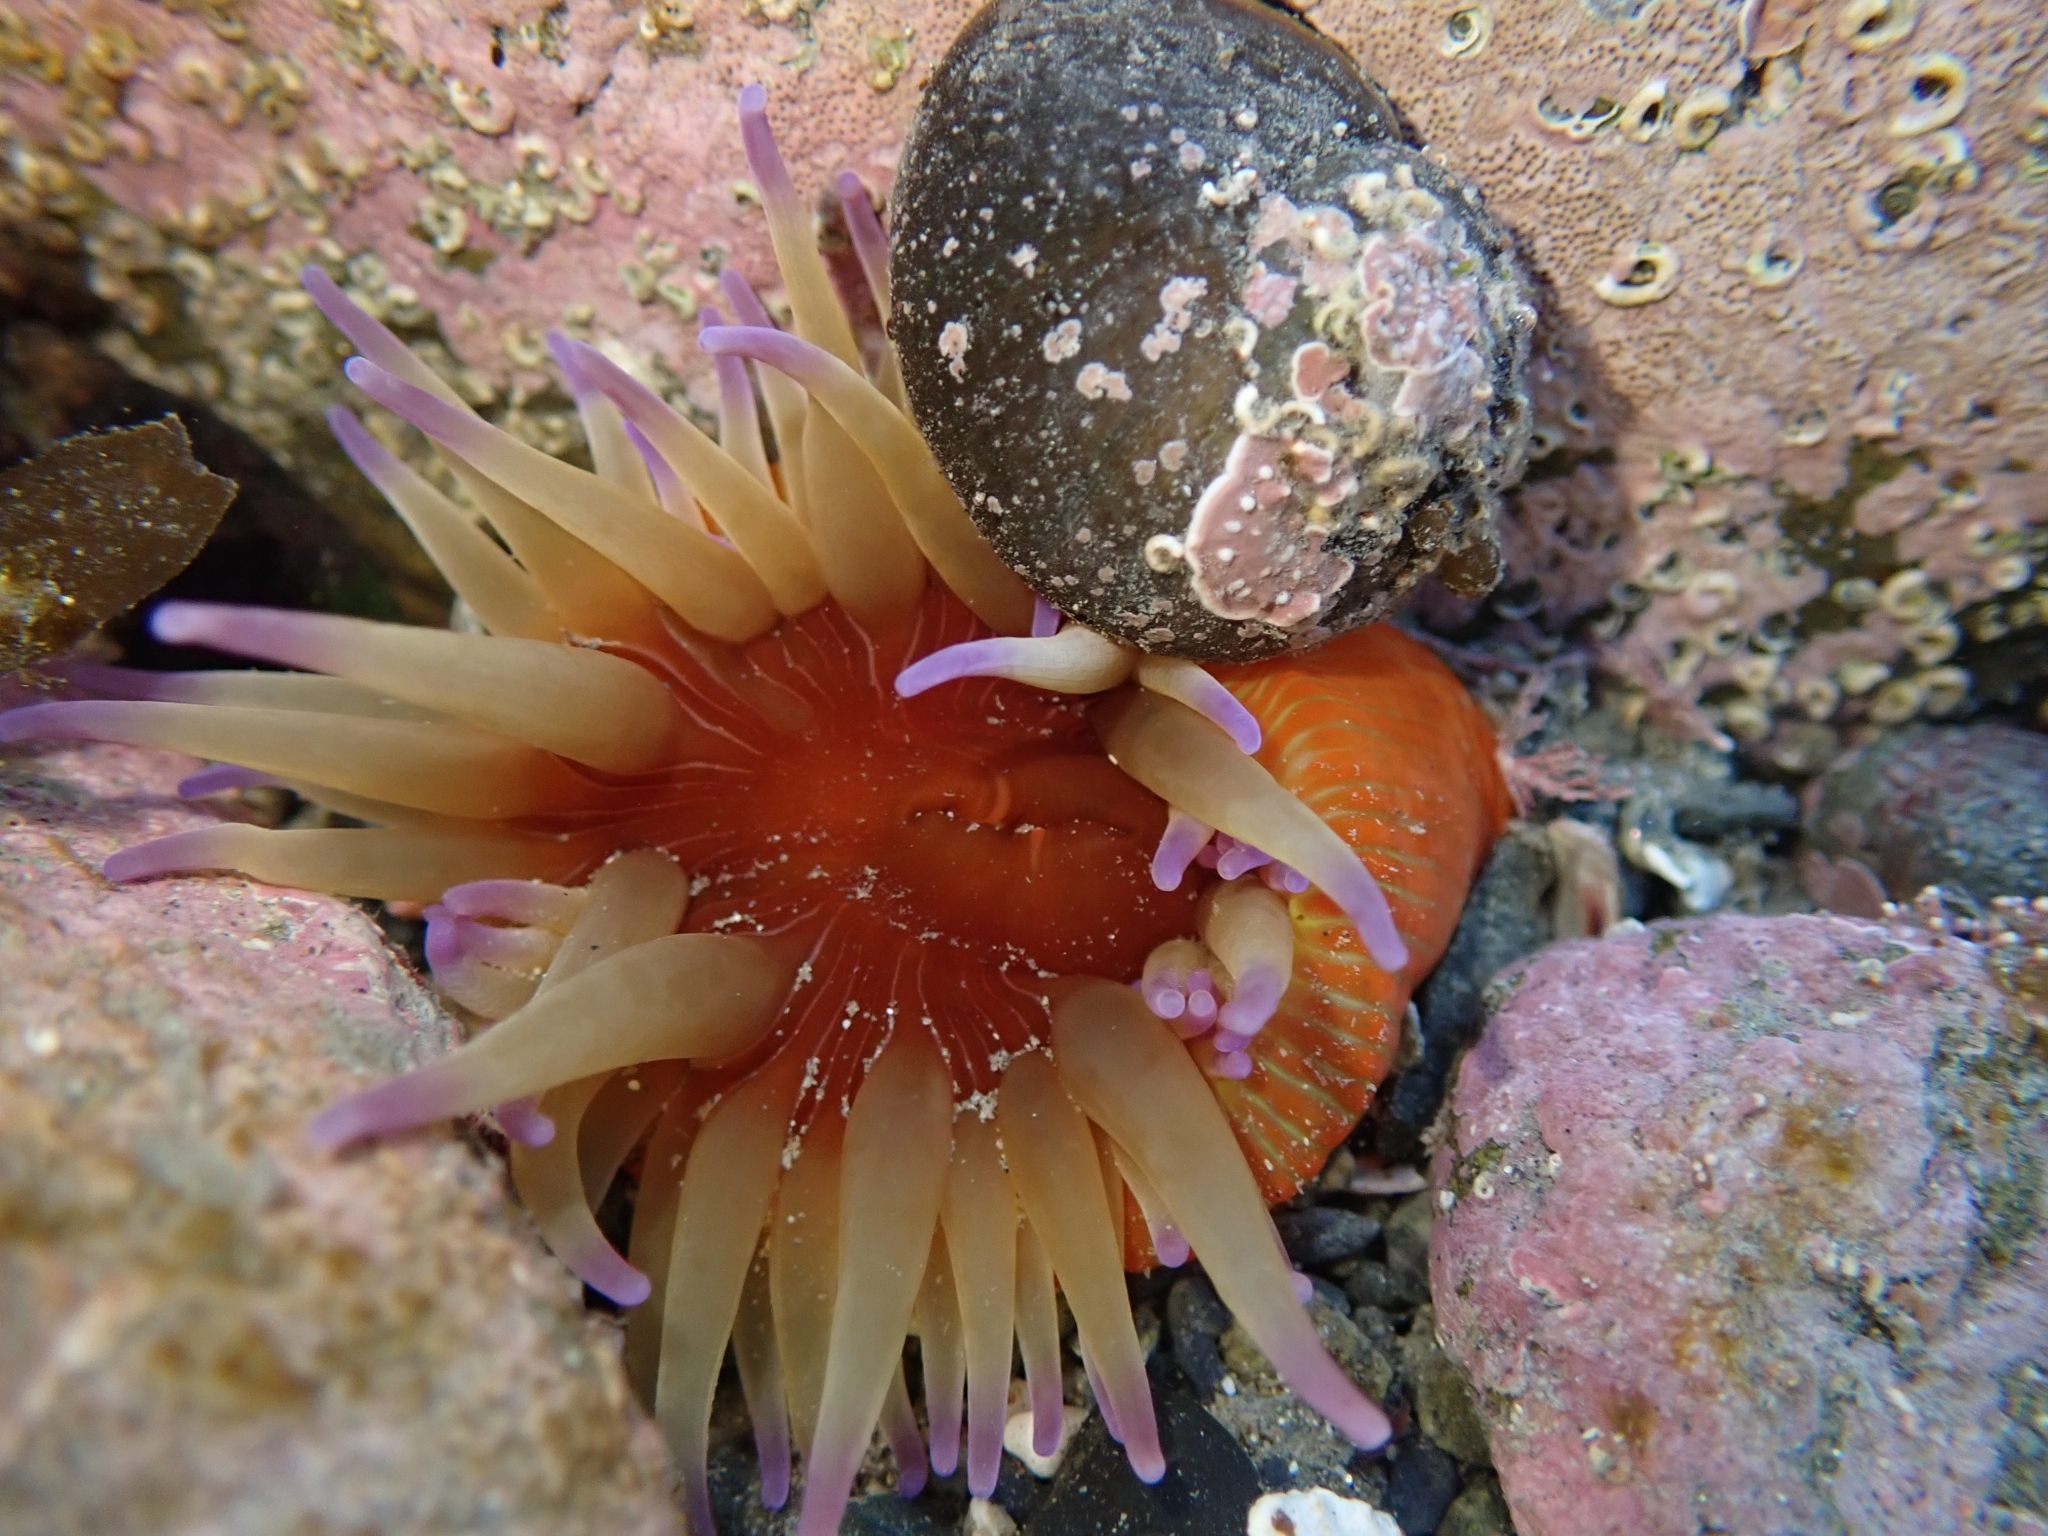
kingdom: Animalia
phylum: Cnidaria
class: Anthozoa
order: Actiniaria
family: Actiniidae
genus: Epiactis
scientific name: Epiactis thompsoni
